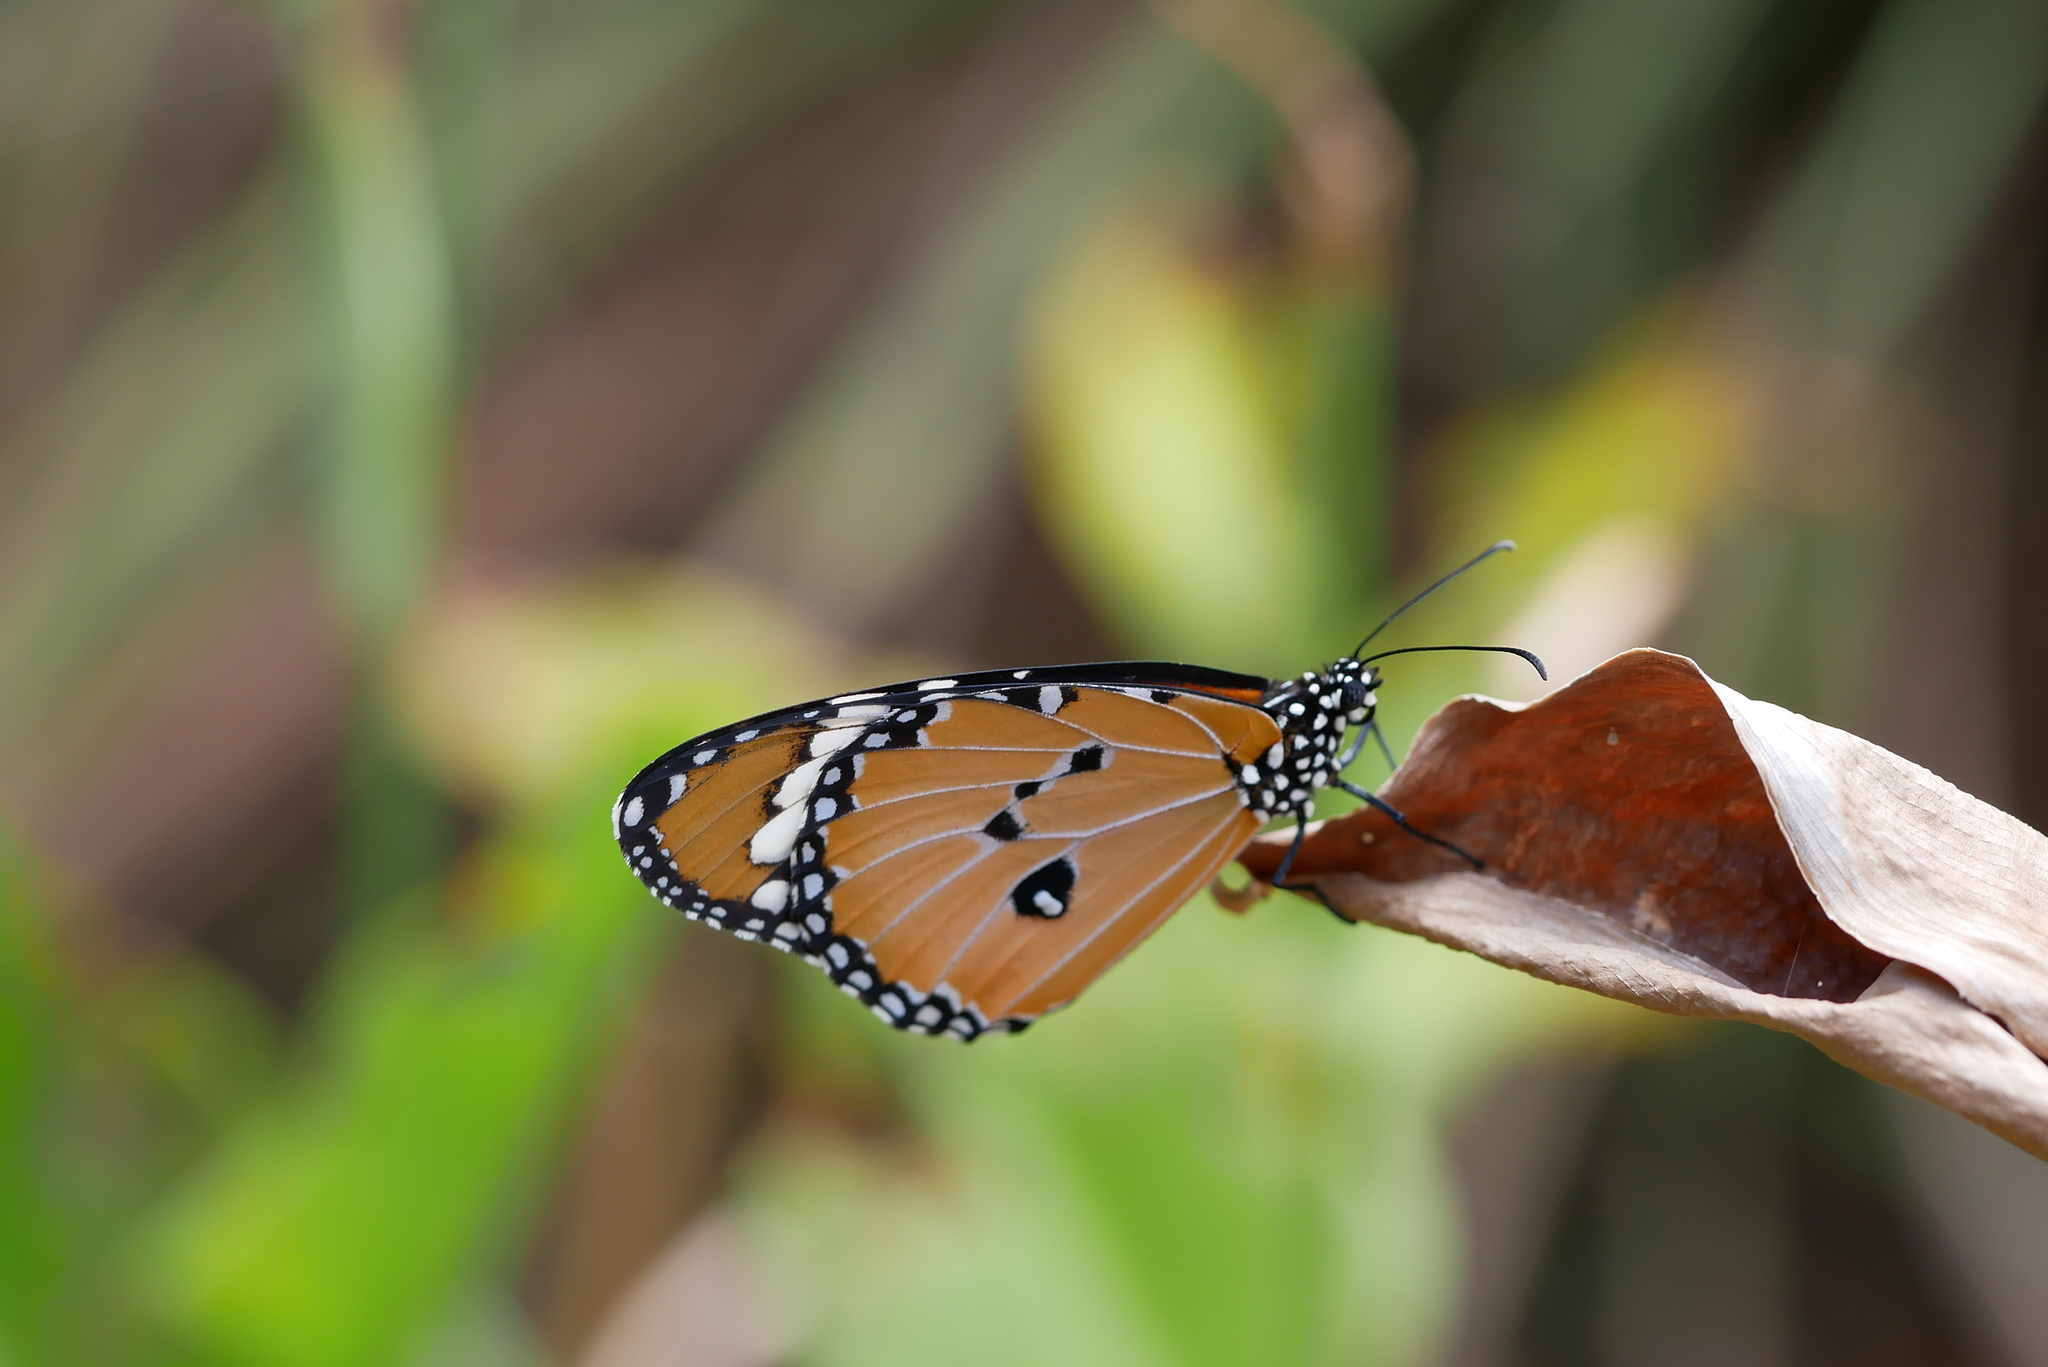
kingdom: Animalia
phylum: Arthropoda
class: Insecta
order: Lepidoptera
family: Nymphalidae
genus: Danaus
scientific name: Danaus chrysippus
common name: Plain tiger
